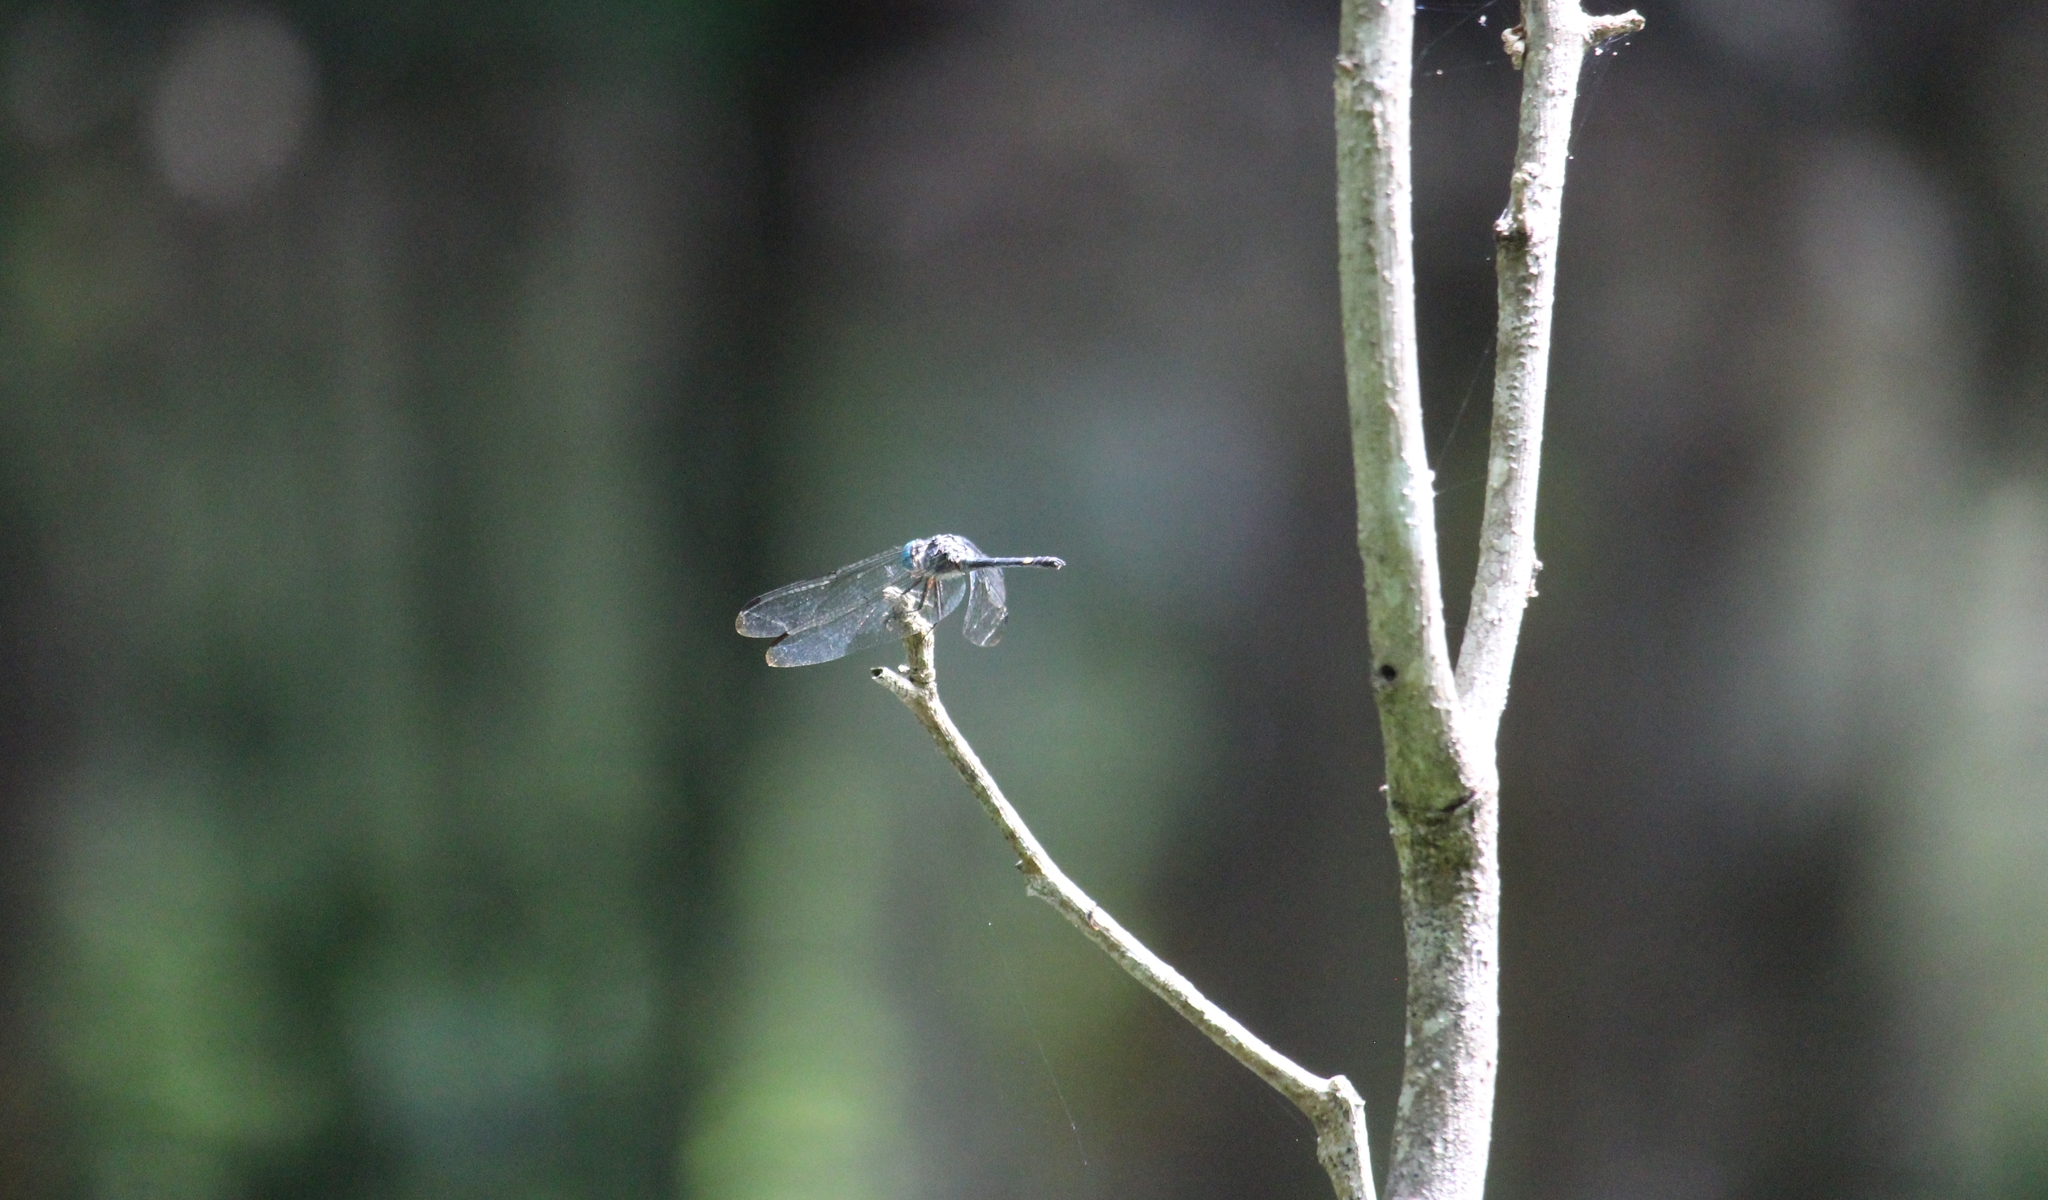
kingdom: Animalia
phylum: Arthropoda
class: Insecta
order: Odonata
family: Libellulidae
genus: Micrathyria
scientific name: Micrathyria didyma
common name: Three-striped dasher
